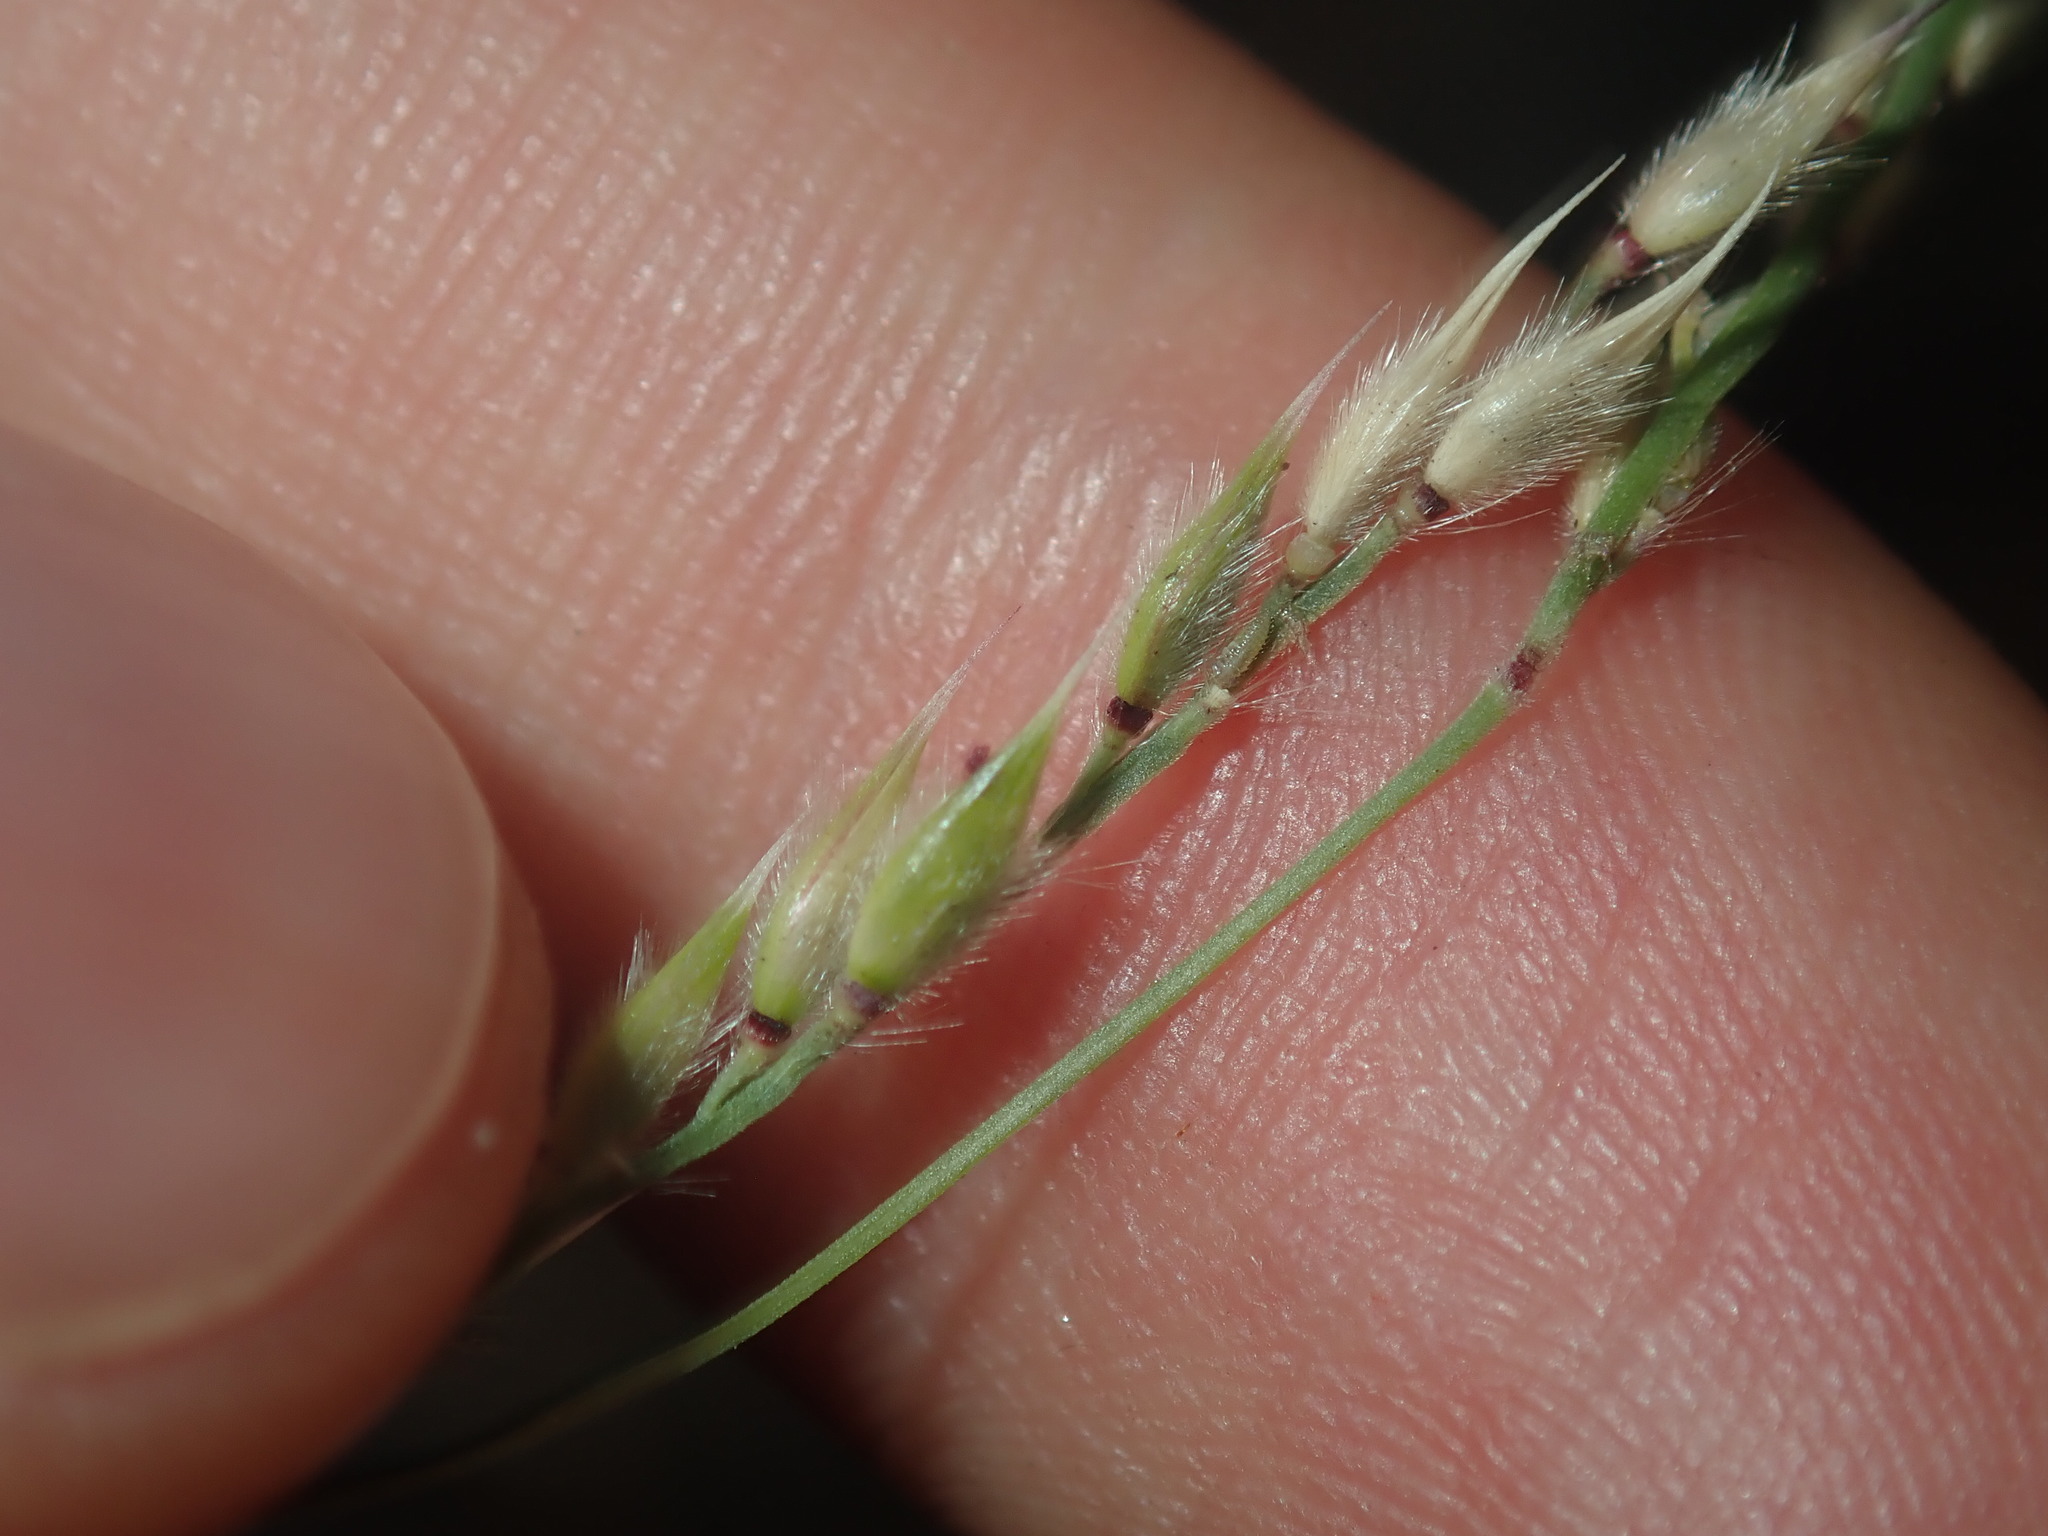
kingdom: Plantae
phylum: Tracheophyta
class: Liliopsida
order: Poales
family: Poaceae
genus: Eriochloa
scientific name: Eriochloa pseudoacrotricha
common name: Perennial cup-grass
